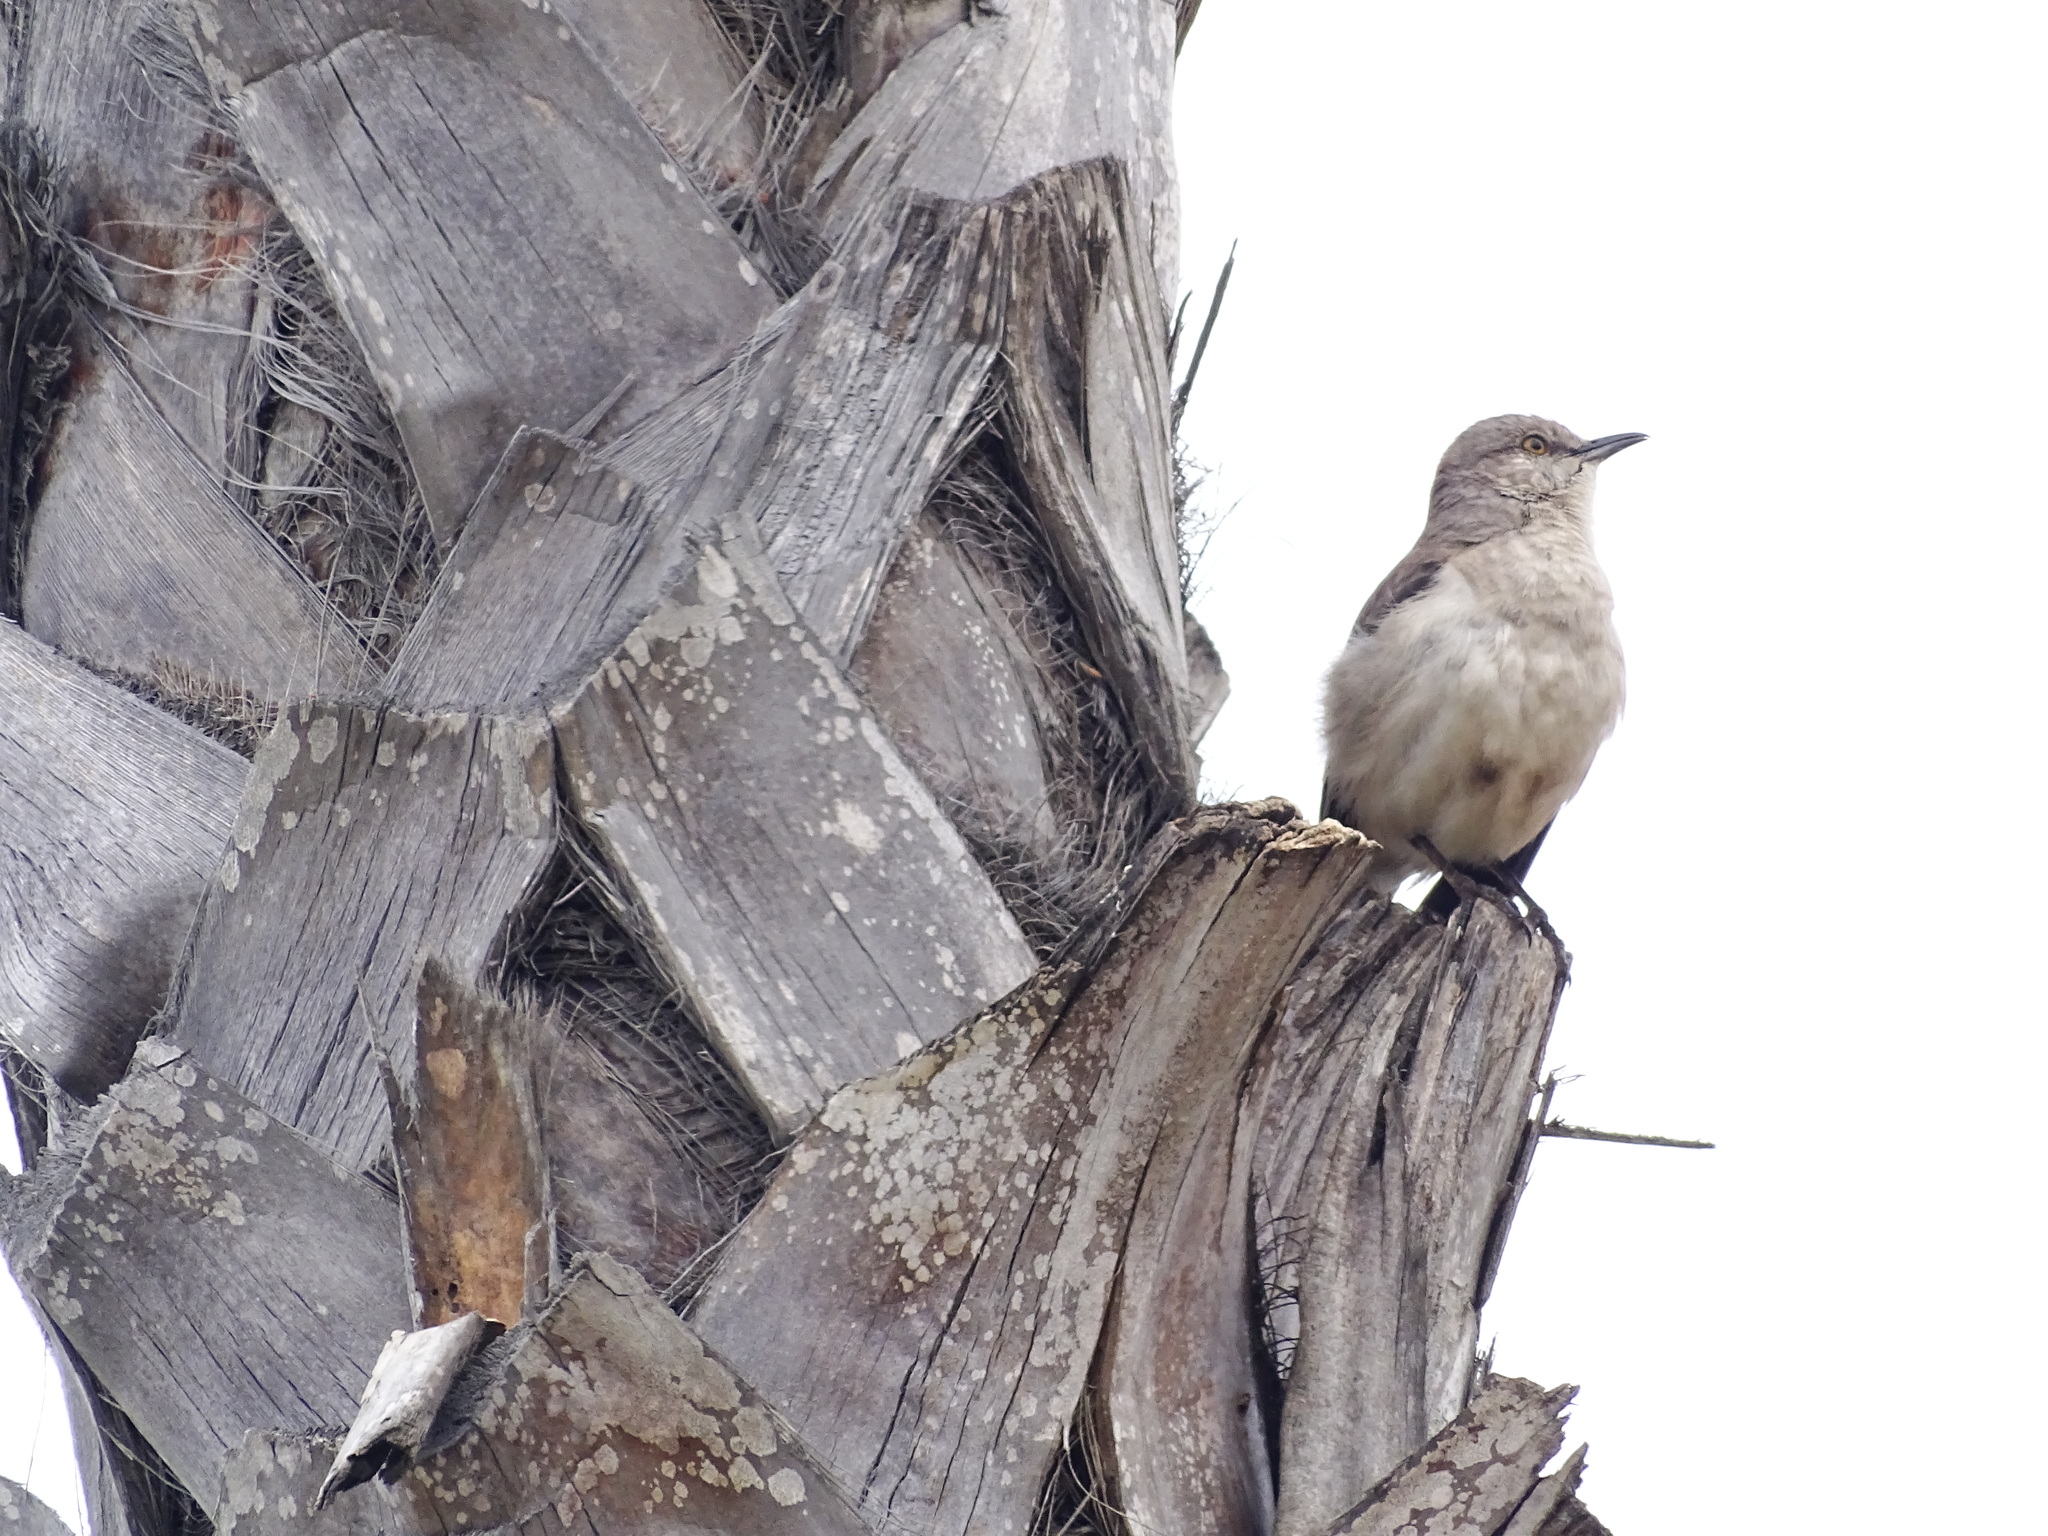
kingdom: Animalia
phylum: Chordata
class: Aves
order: Passeriformes
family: Mimidae
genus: Mimus
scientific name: Mimus polyglottos
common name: Northern mockingbird
